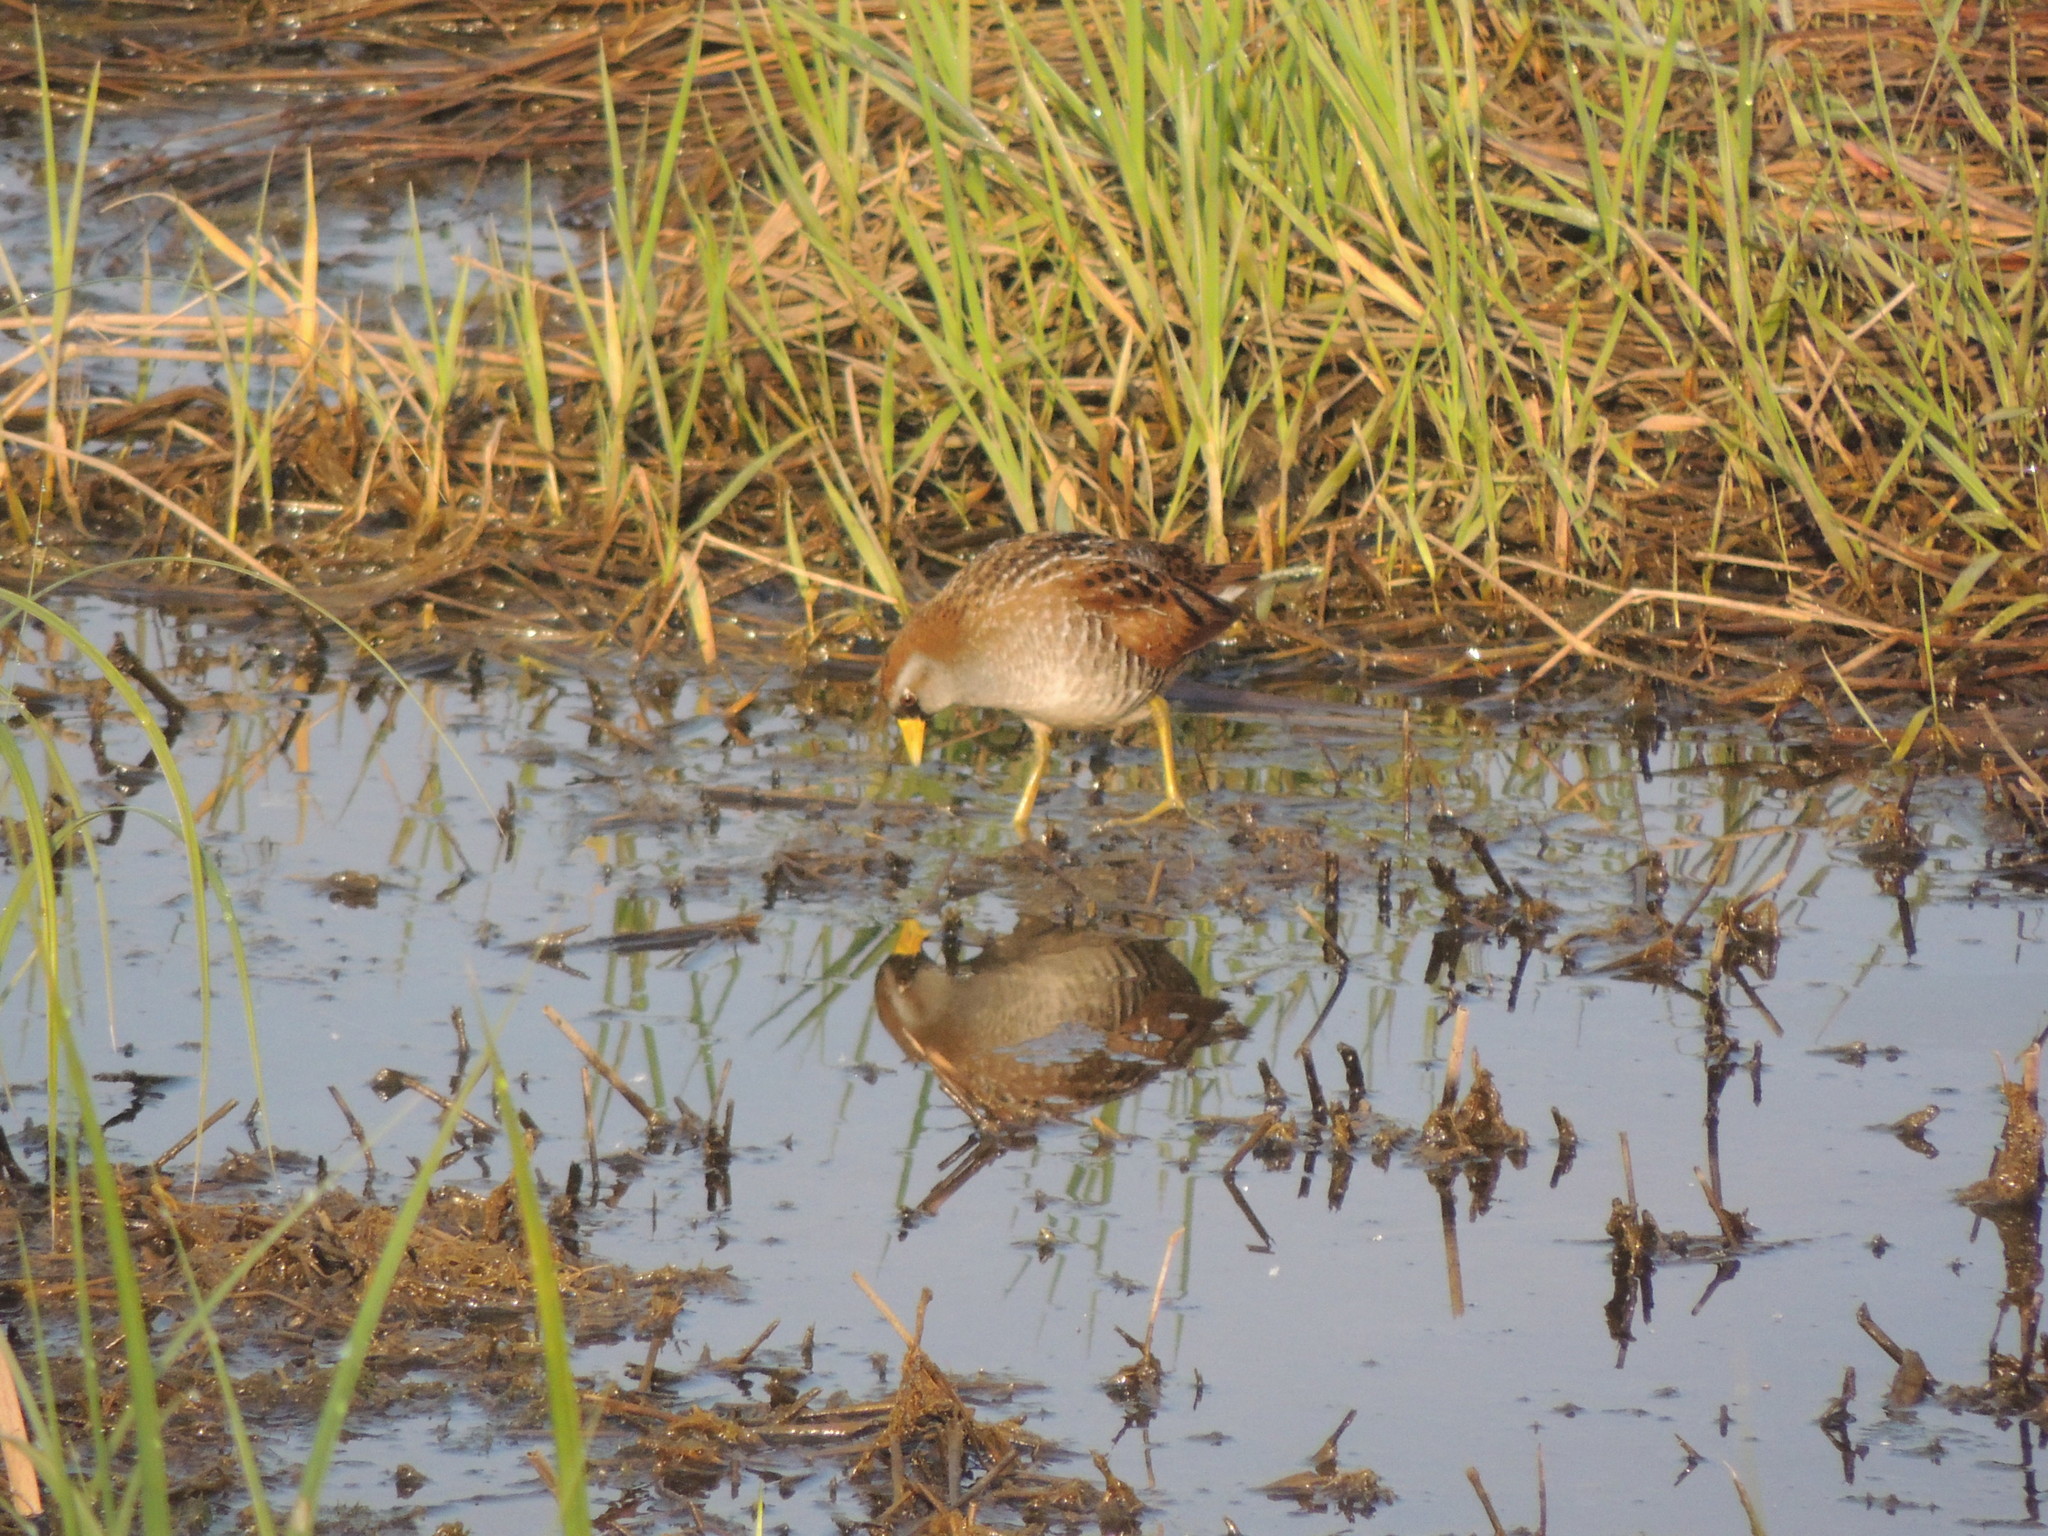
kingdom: Animalia
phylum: Chordata
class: Aves
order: Gruiformes
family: Rallidae
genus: Porzana
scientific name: Porzana carolina
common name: Sora
